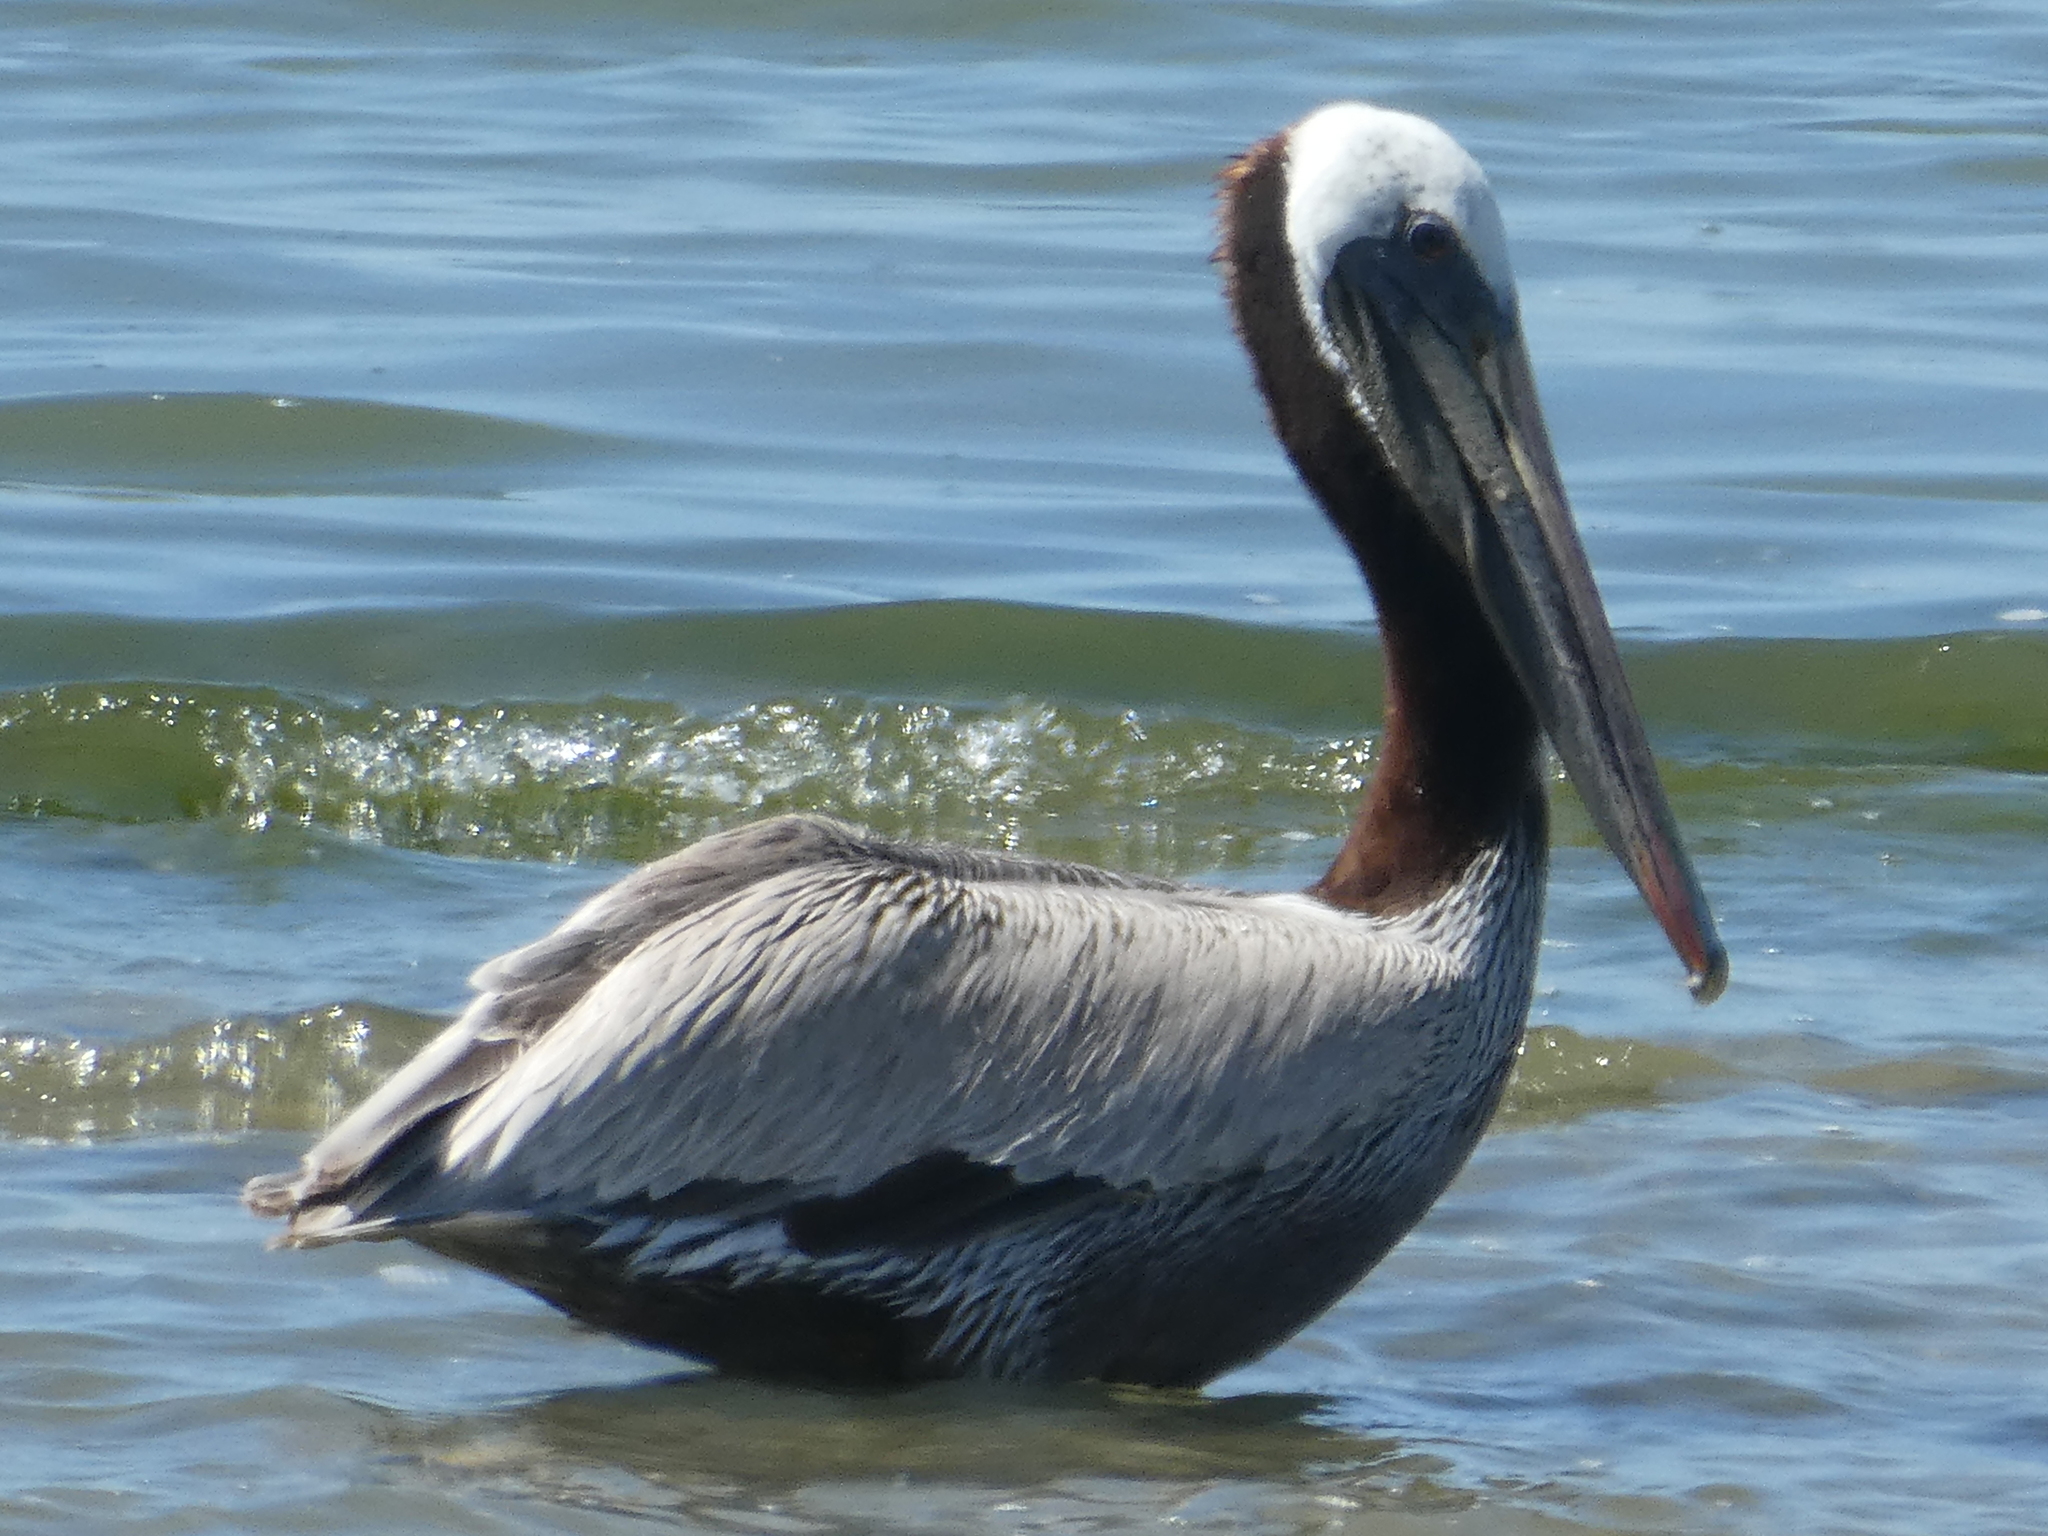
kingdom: Animalia
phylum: Chordata
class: Aves
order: Pelecaniformes
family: Pelecanidae
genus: Pelecanus
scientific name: Pelecanus occidentalis
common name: Brown pelican
